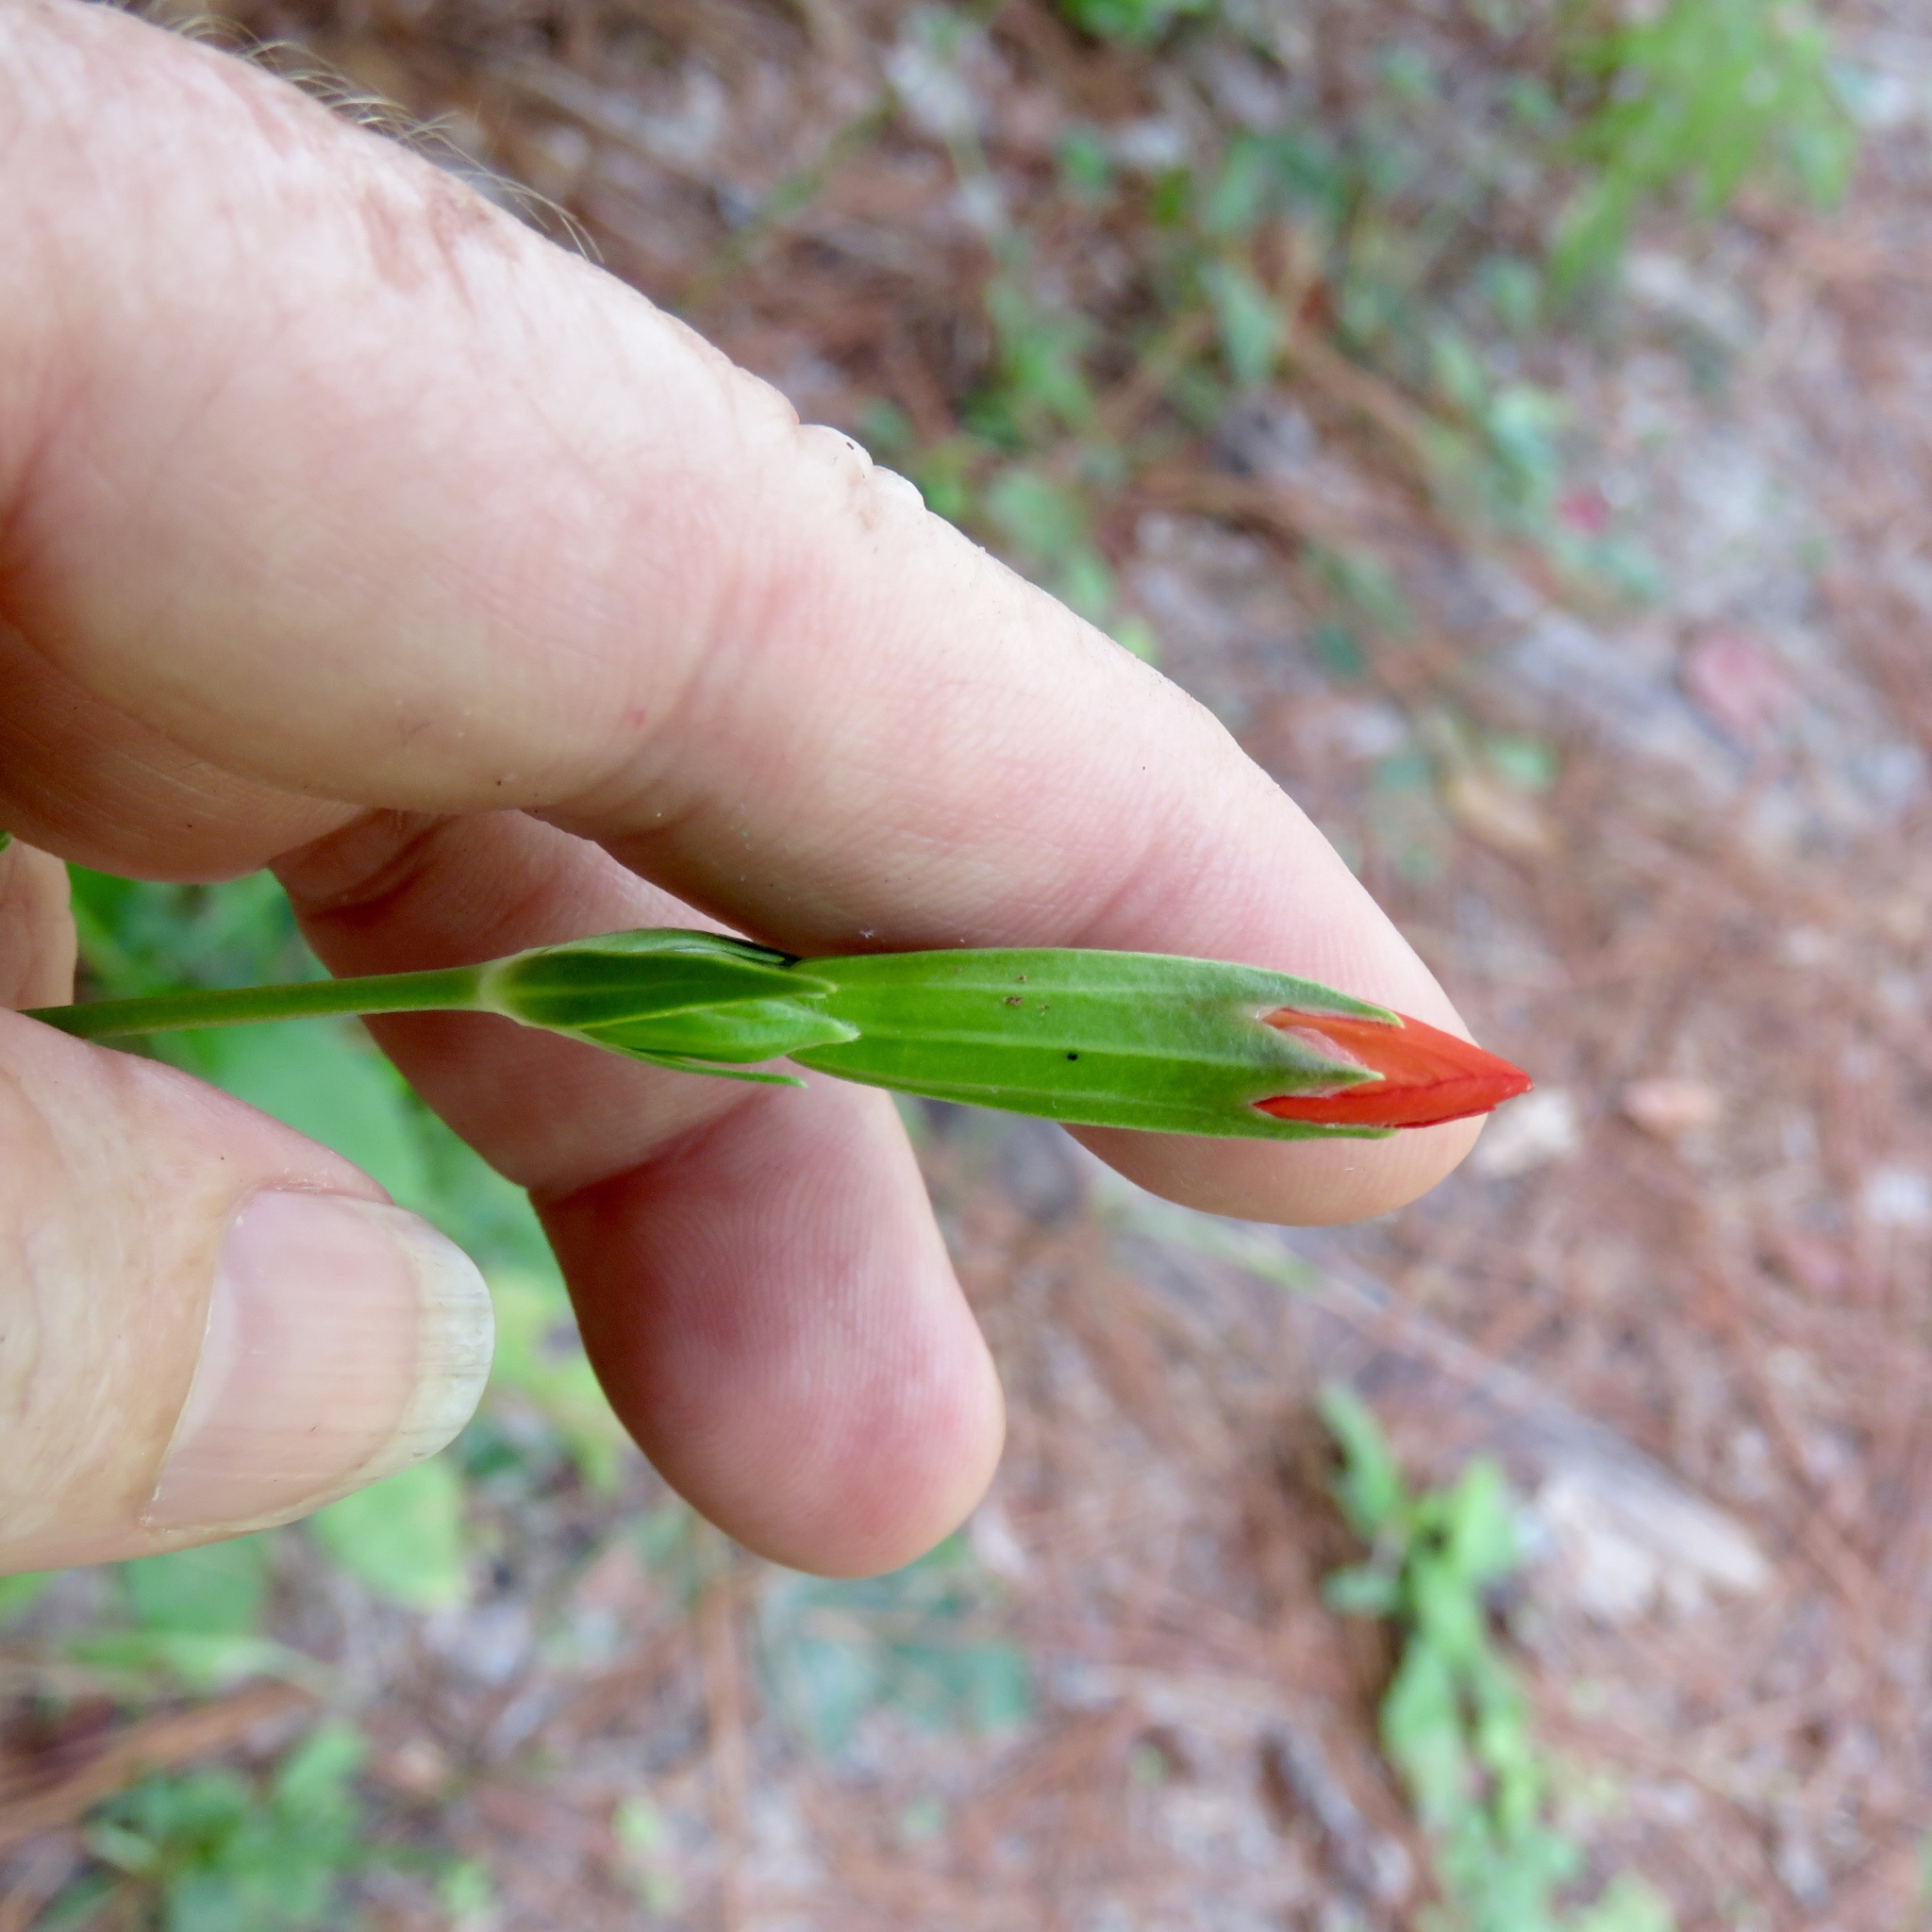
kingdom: Plantae
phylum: Tracheophyta
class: Magnoliopsida
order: Caryophyllales
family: Caryophyllaceae
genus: Silene
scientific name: Silene subciliata
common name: Prairie fire-pink
